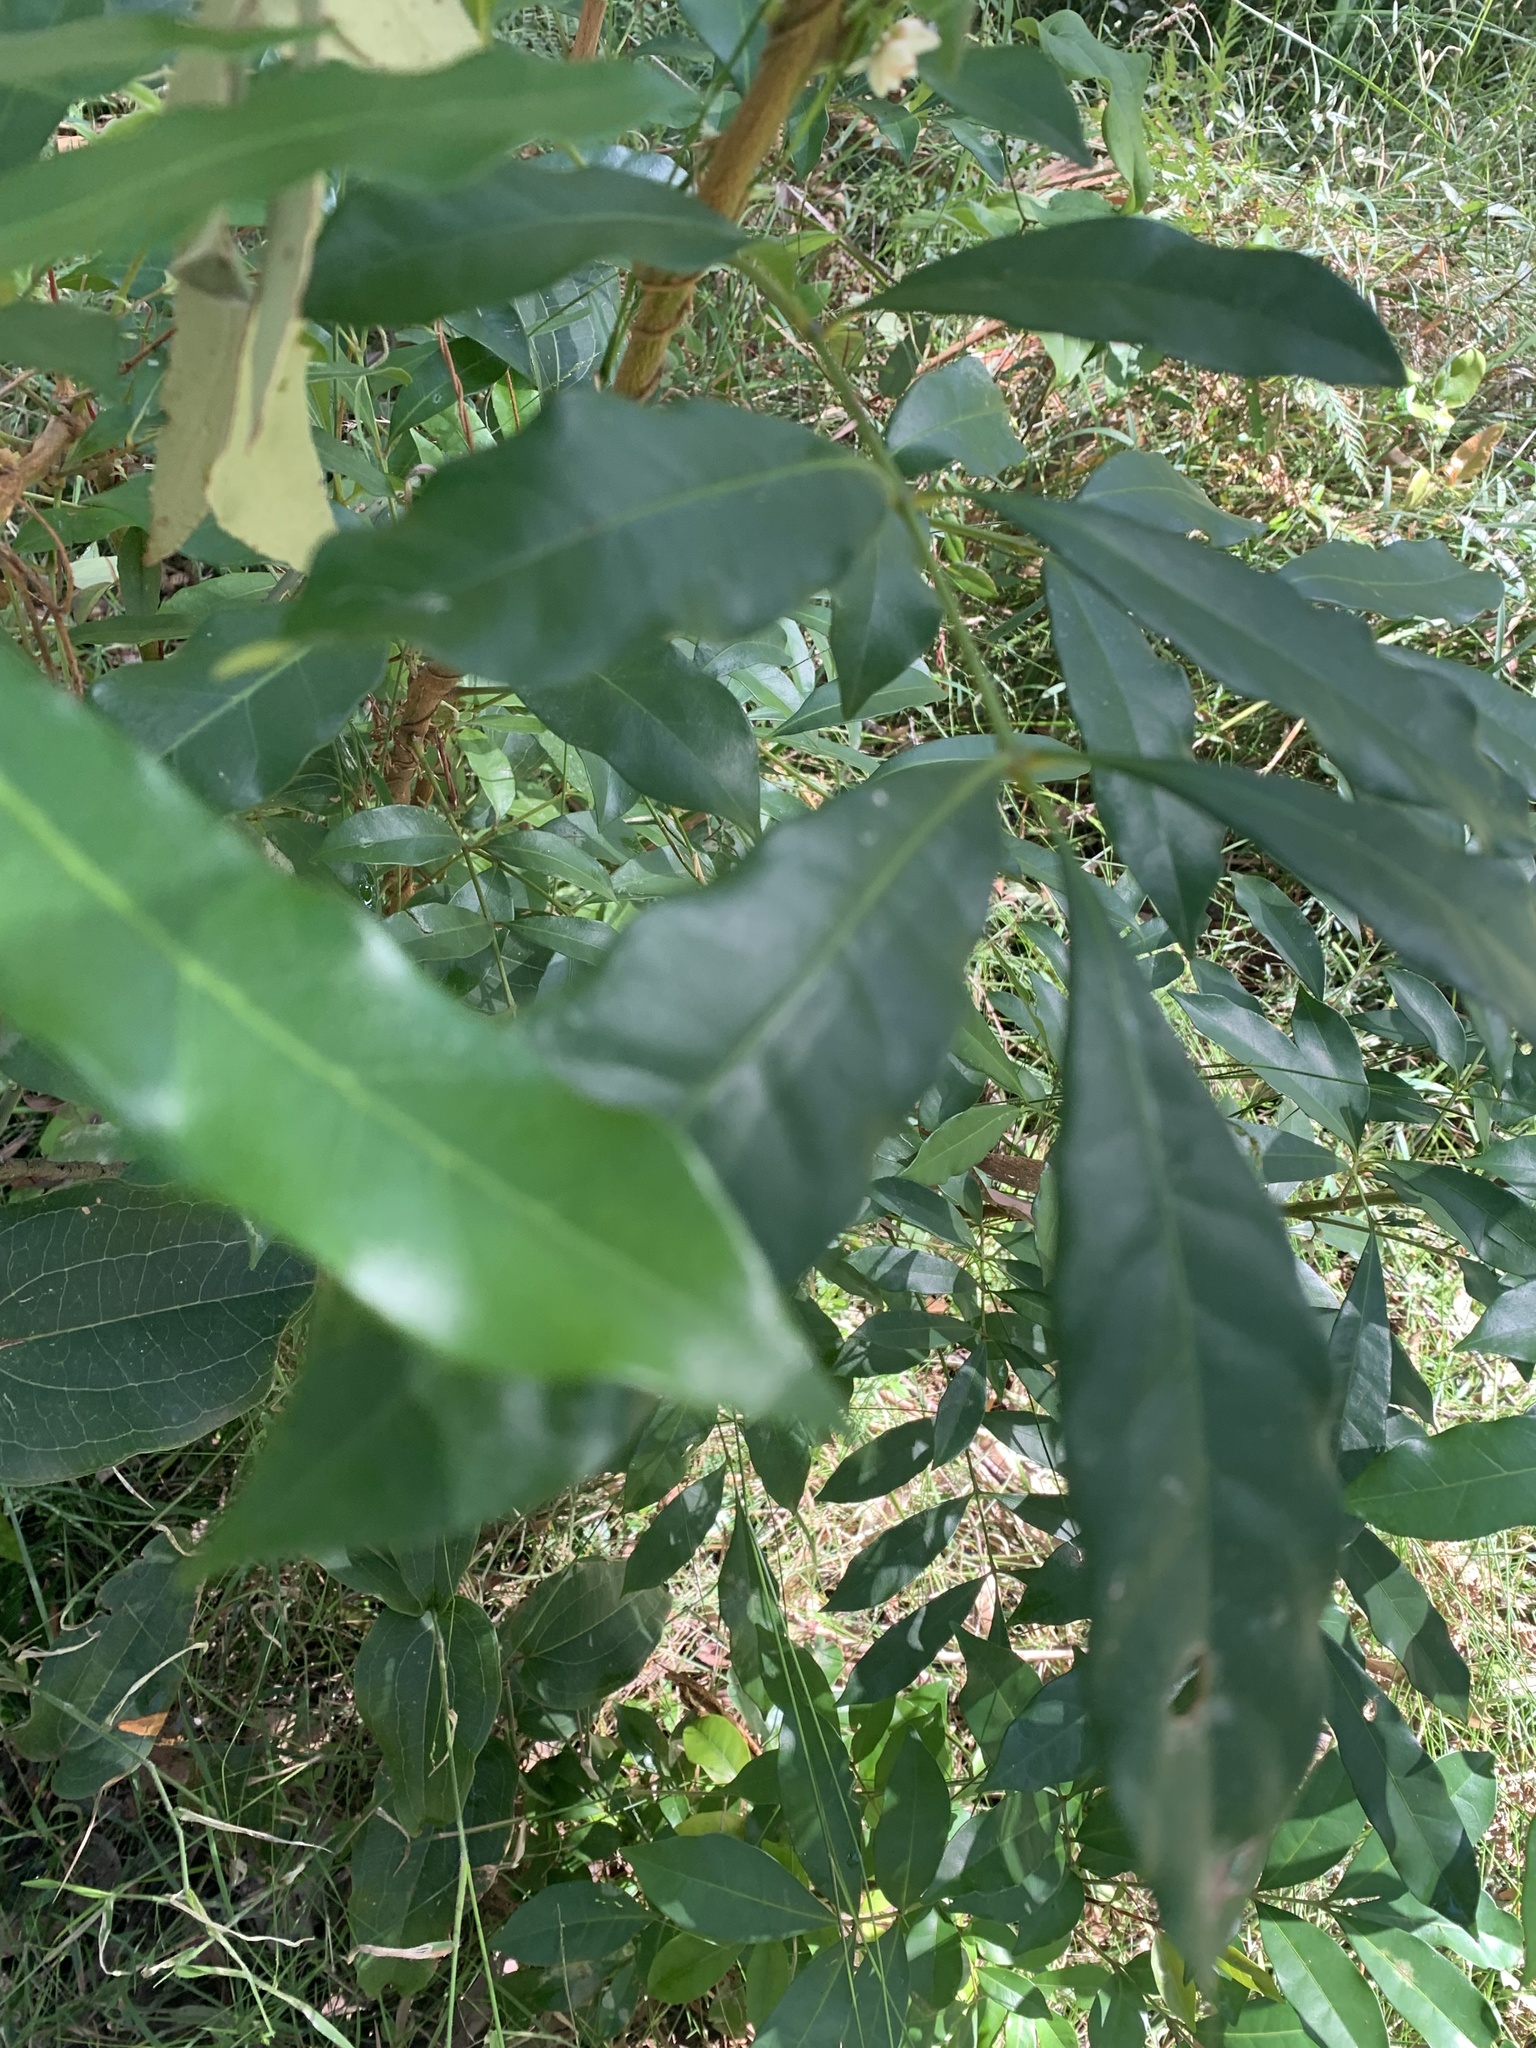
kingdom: Plantae
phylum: Tracheophyta
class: Magnoliopsida
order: Sapindales
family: Meliaceae
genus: Synoum
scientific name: Synoum glandulosum
